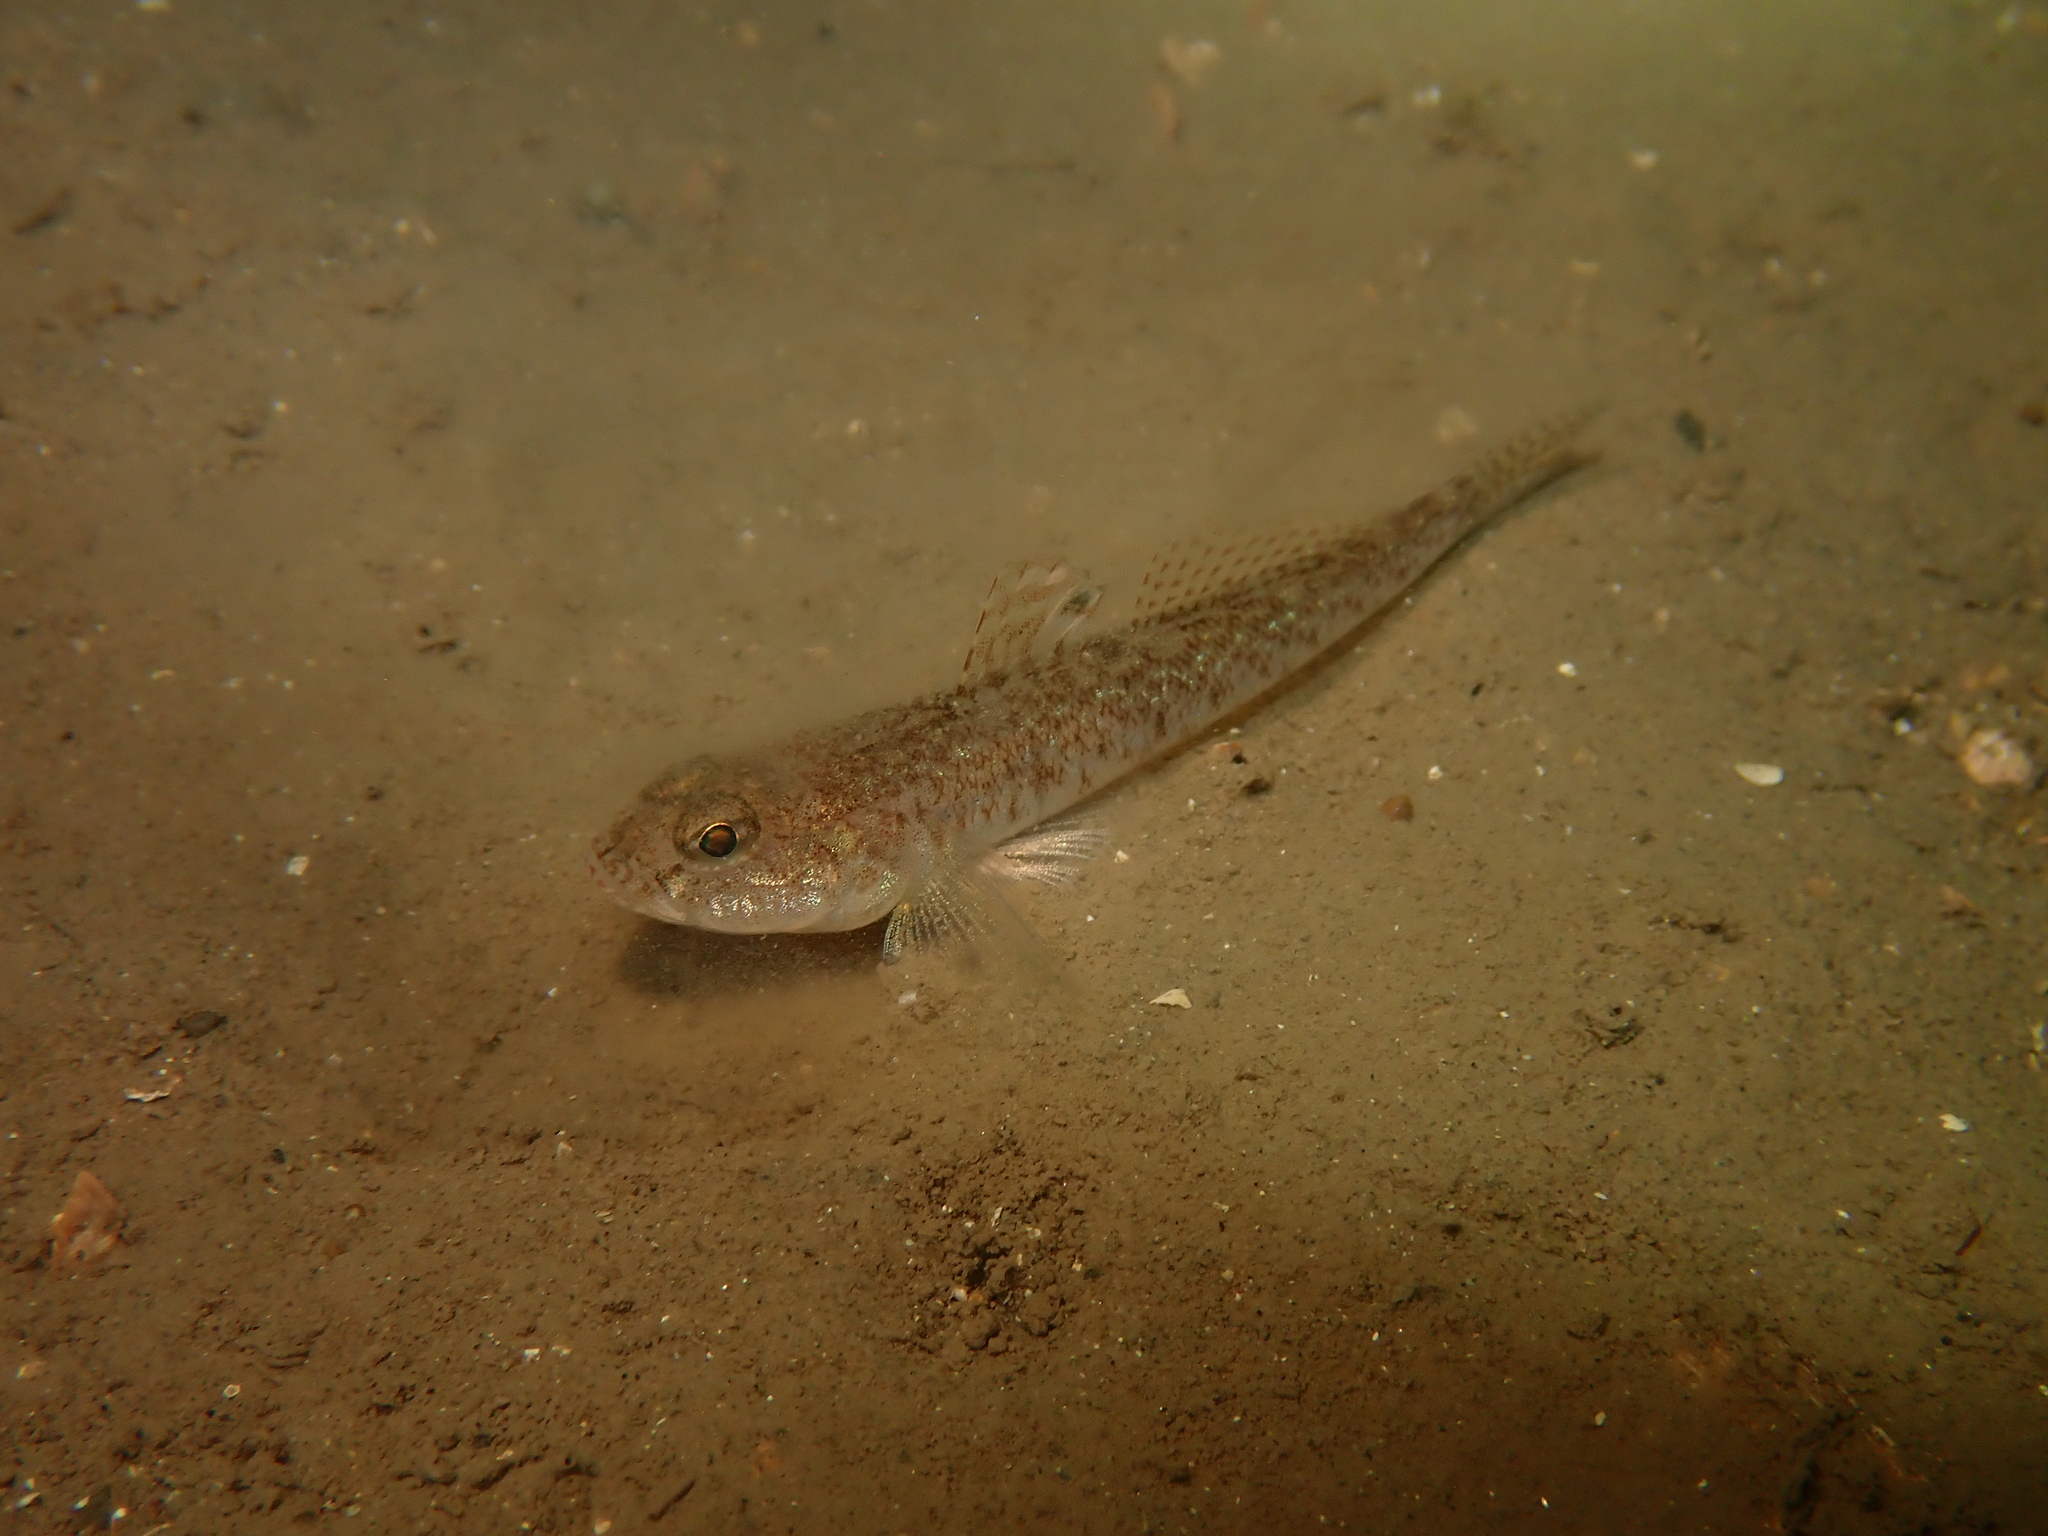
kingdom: Animalia
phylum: Chordata
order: Perciformes
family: Gobiidae
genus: Pomatoschistus
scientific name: Pomatoschistus minutus
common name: Sand goby
